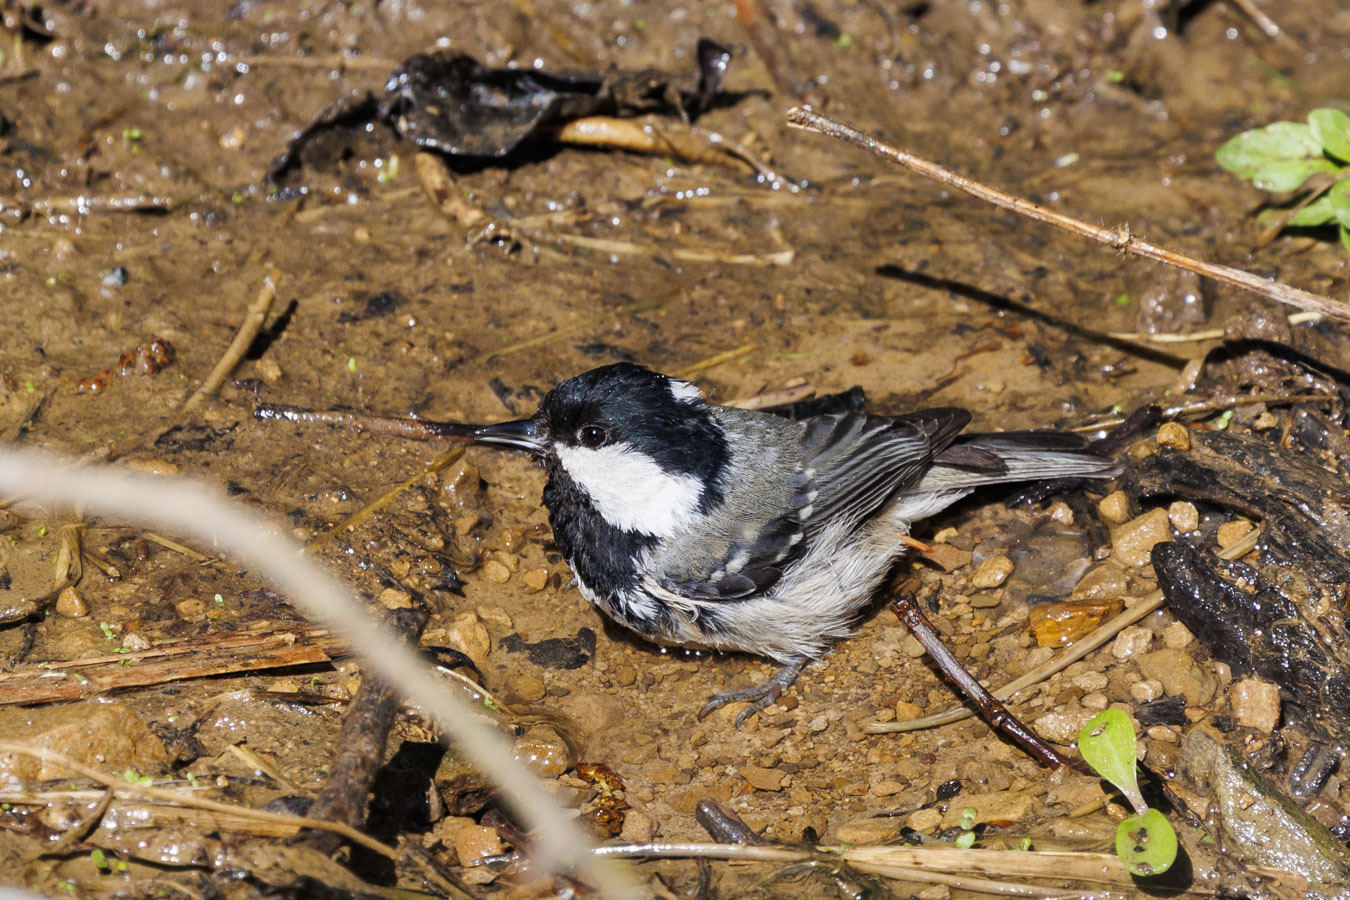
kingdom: Animalia
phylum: Chordata
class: Aves
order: Passeriformes
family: Paridae
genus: Periparus
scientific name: Periparus ater
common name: Coal tit
